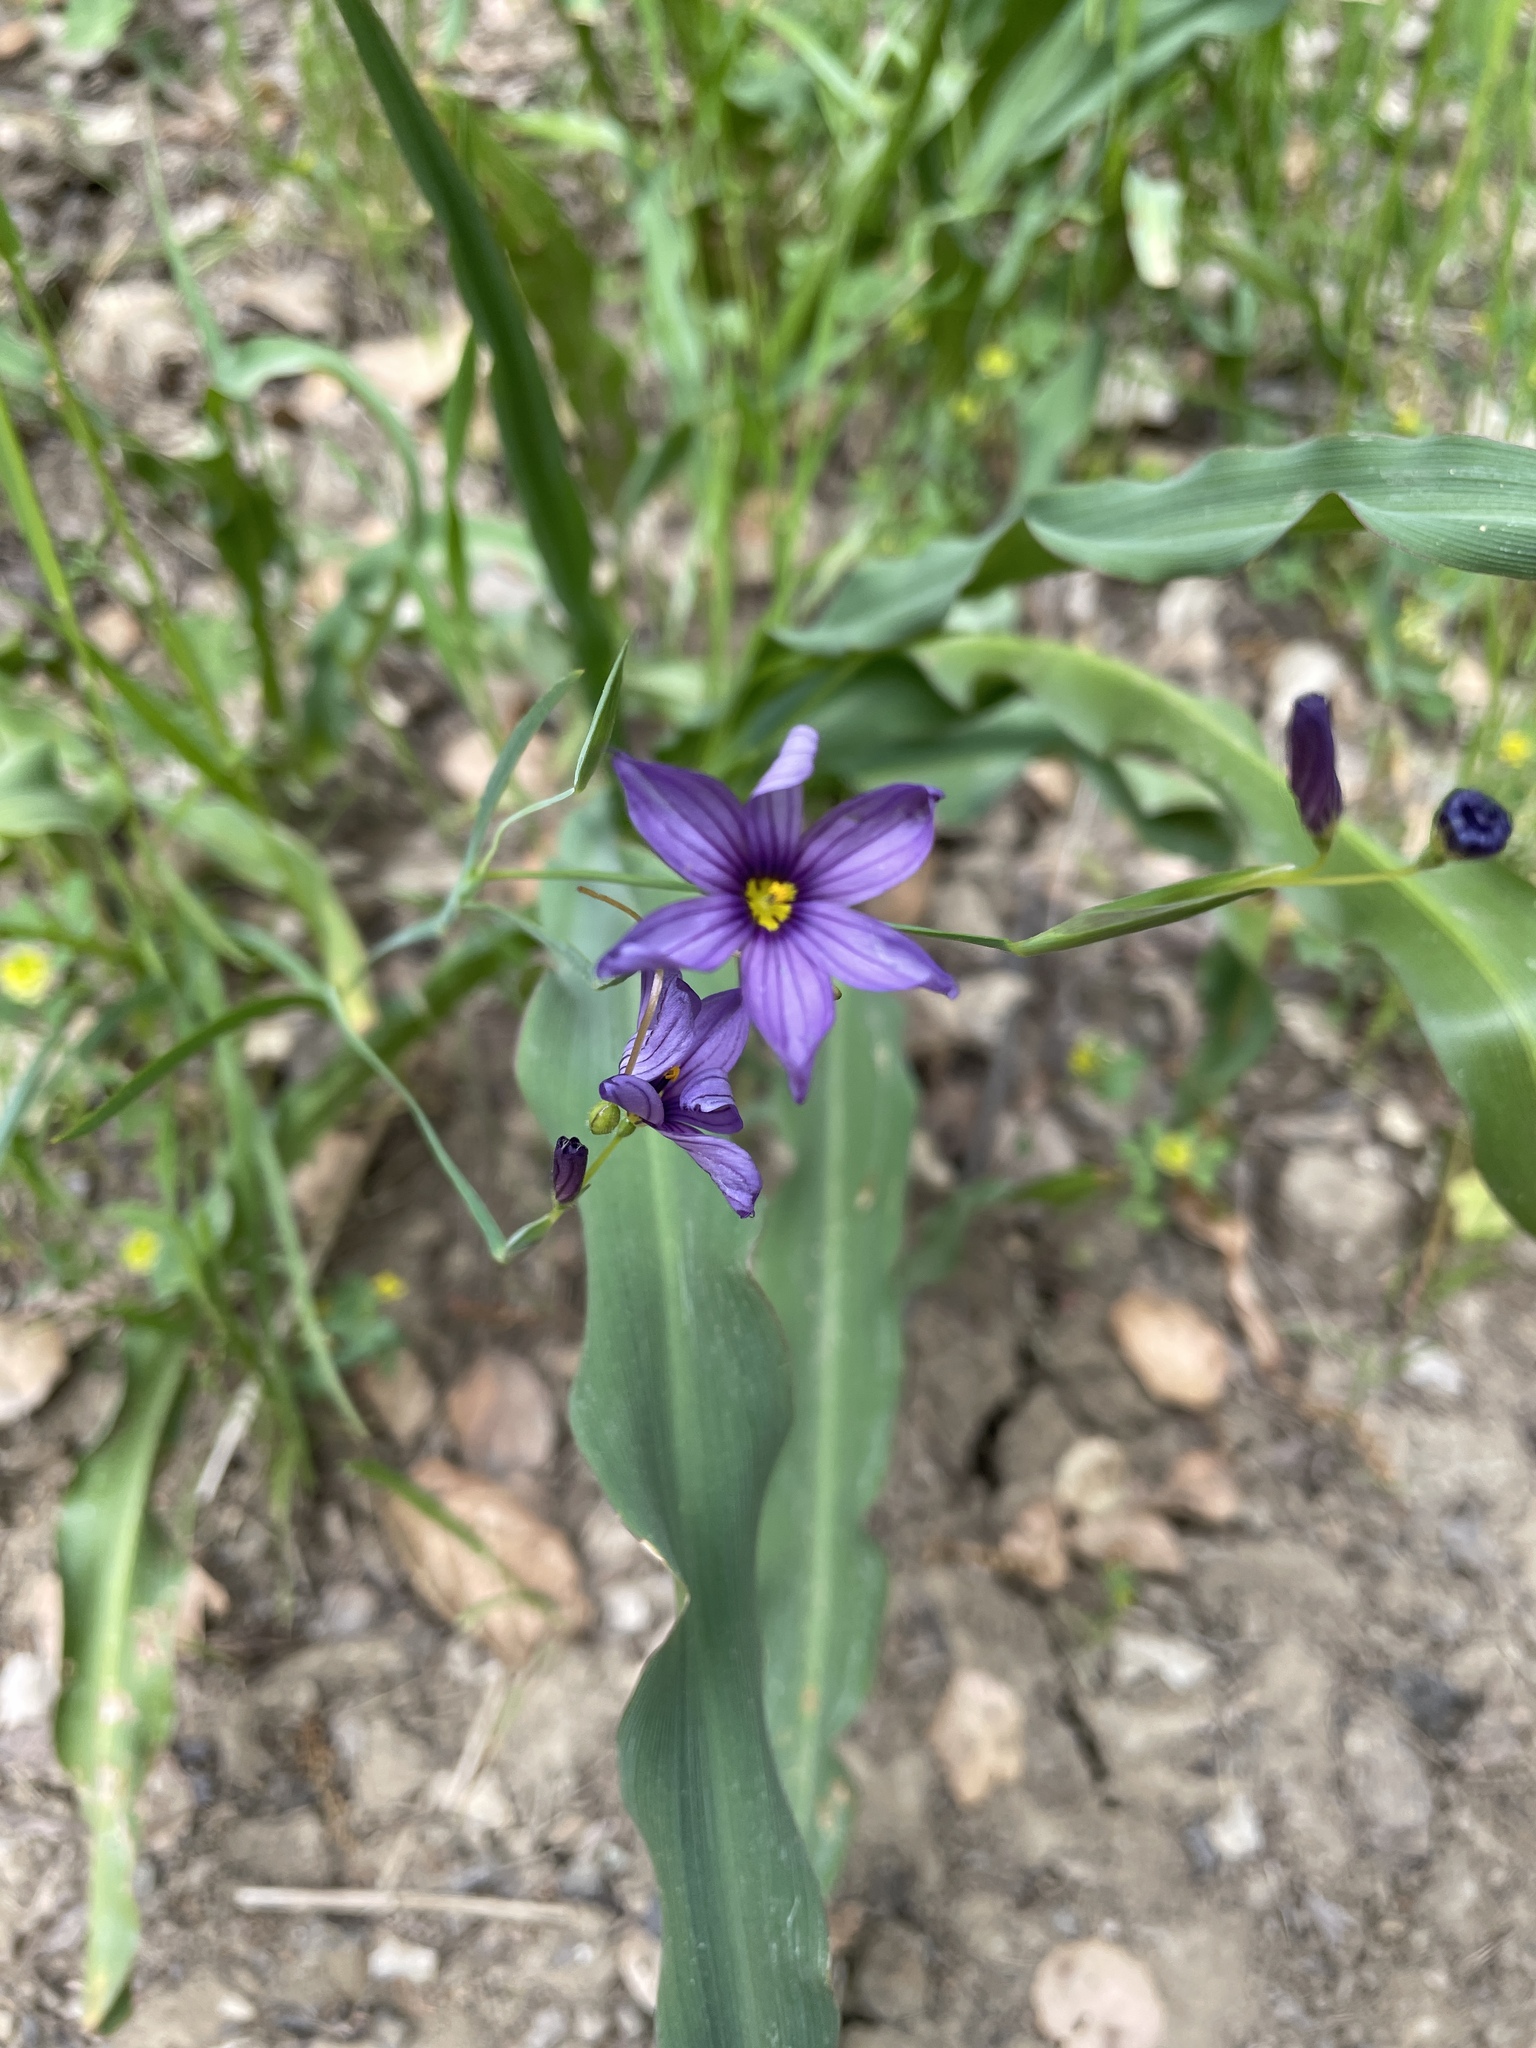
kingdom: Plantae
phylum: Tracheophyta
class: Liliopsida
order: Asparagales
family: Iridaceae
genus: Sisyrinchium
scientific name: Sisyrinchium bellum
